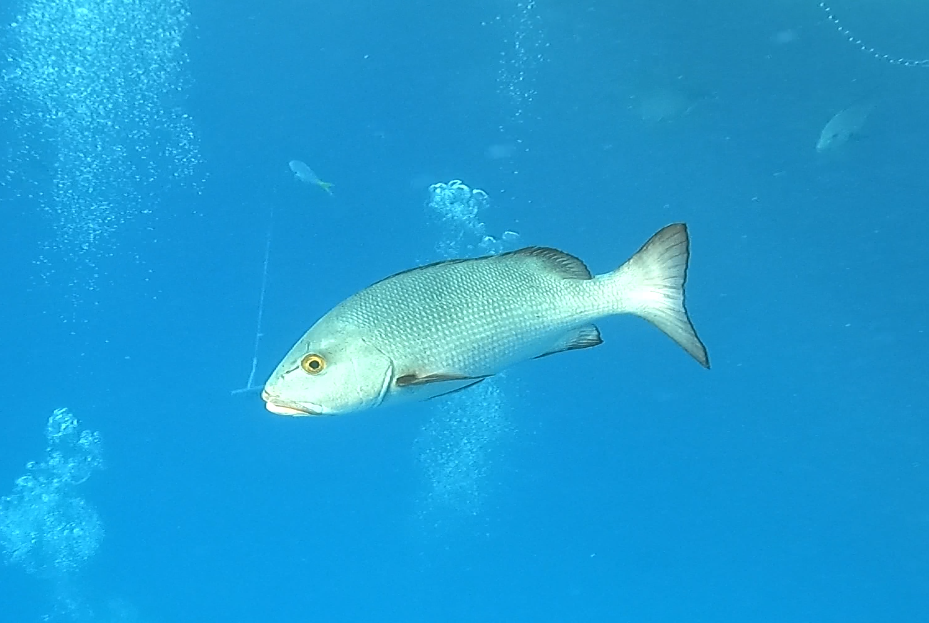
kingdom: Animalia
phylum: Chordata
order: Perciformes
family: Lutjanidae
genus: Lutjanus
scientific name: Lutjanus bohar
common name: Red bass
